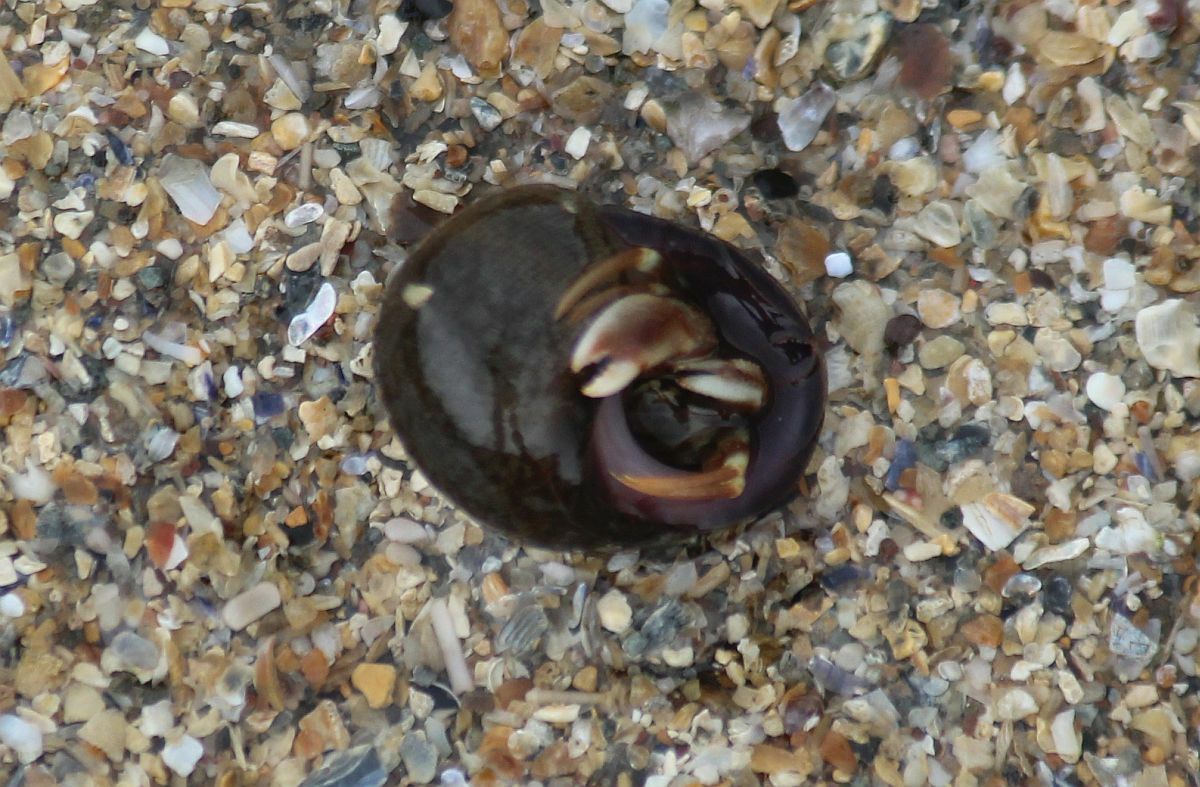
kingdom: Animalia
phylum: Arthropoda
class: Malacostraca
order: Decapoda
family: Paguridae
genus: Pagurus
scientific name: Pagurus bernhardus
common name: Hermit crab
